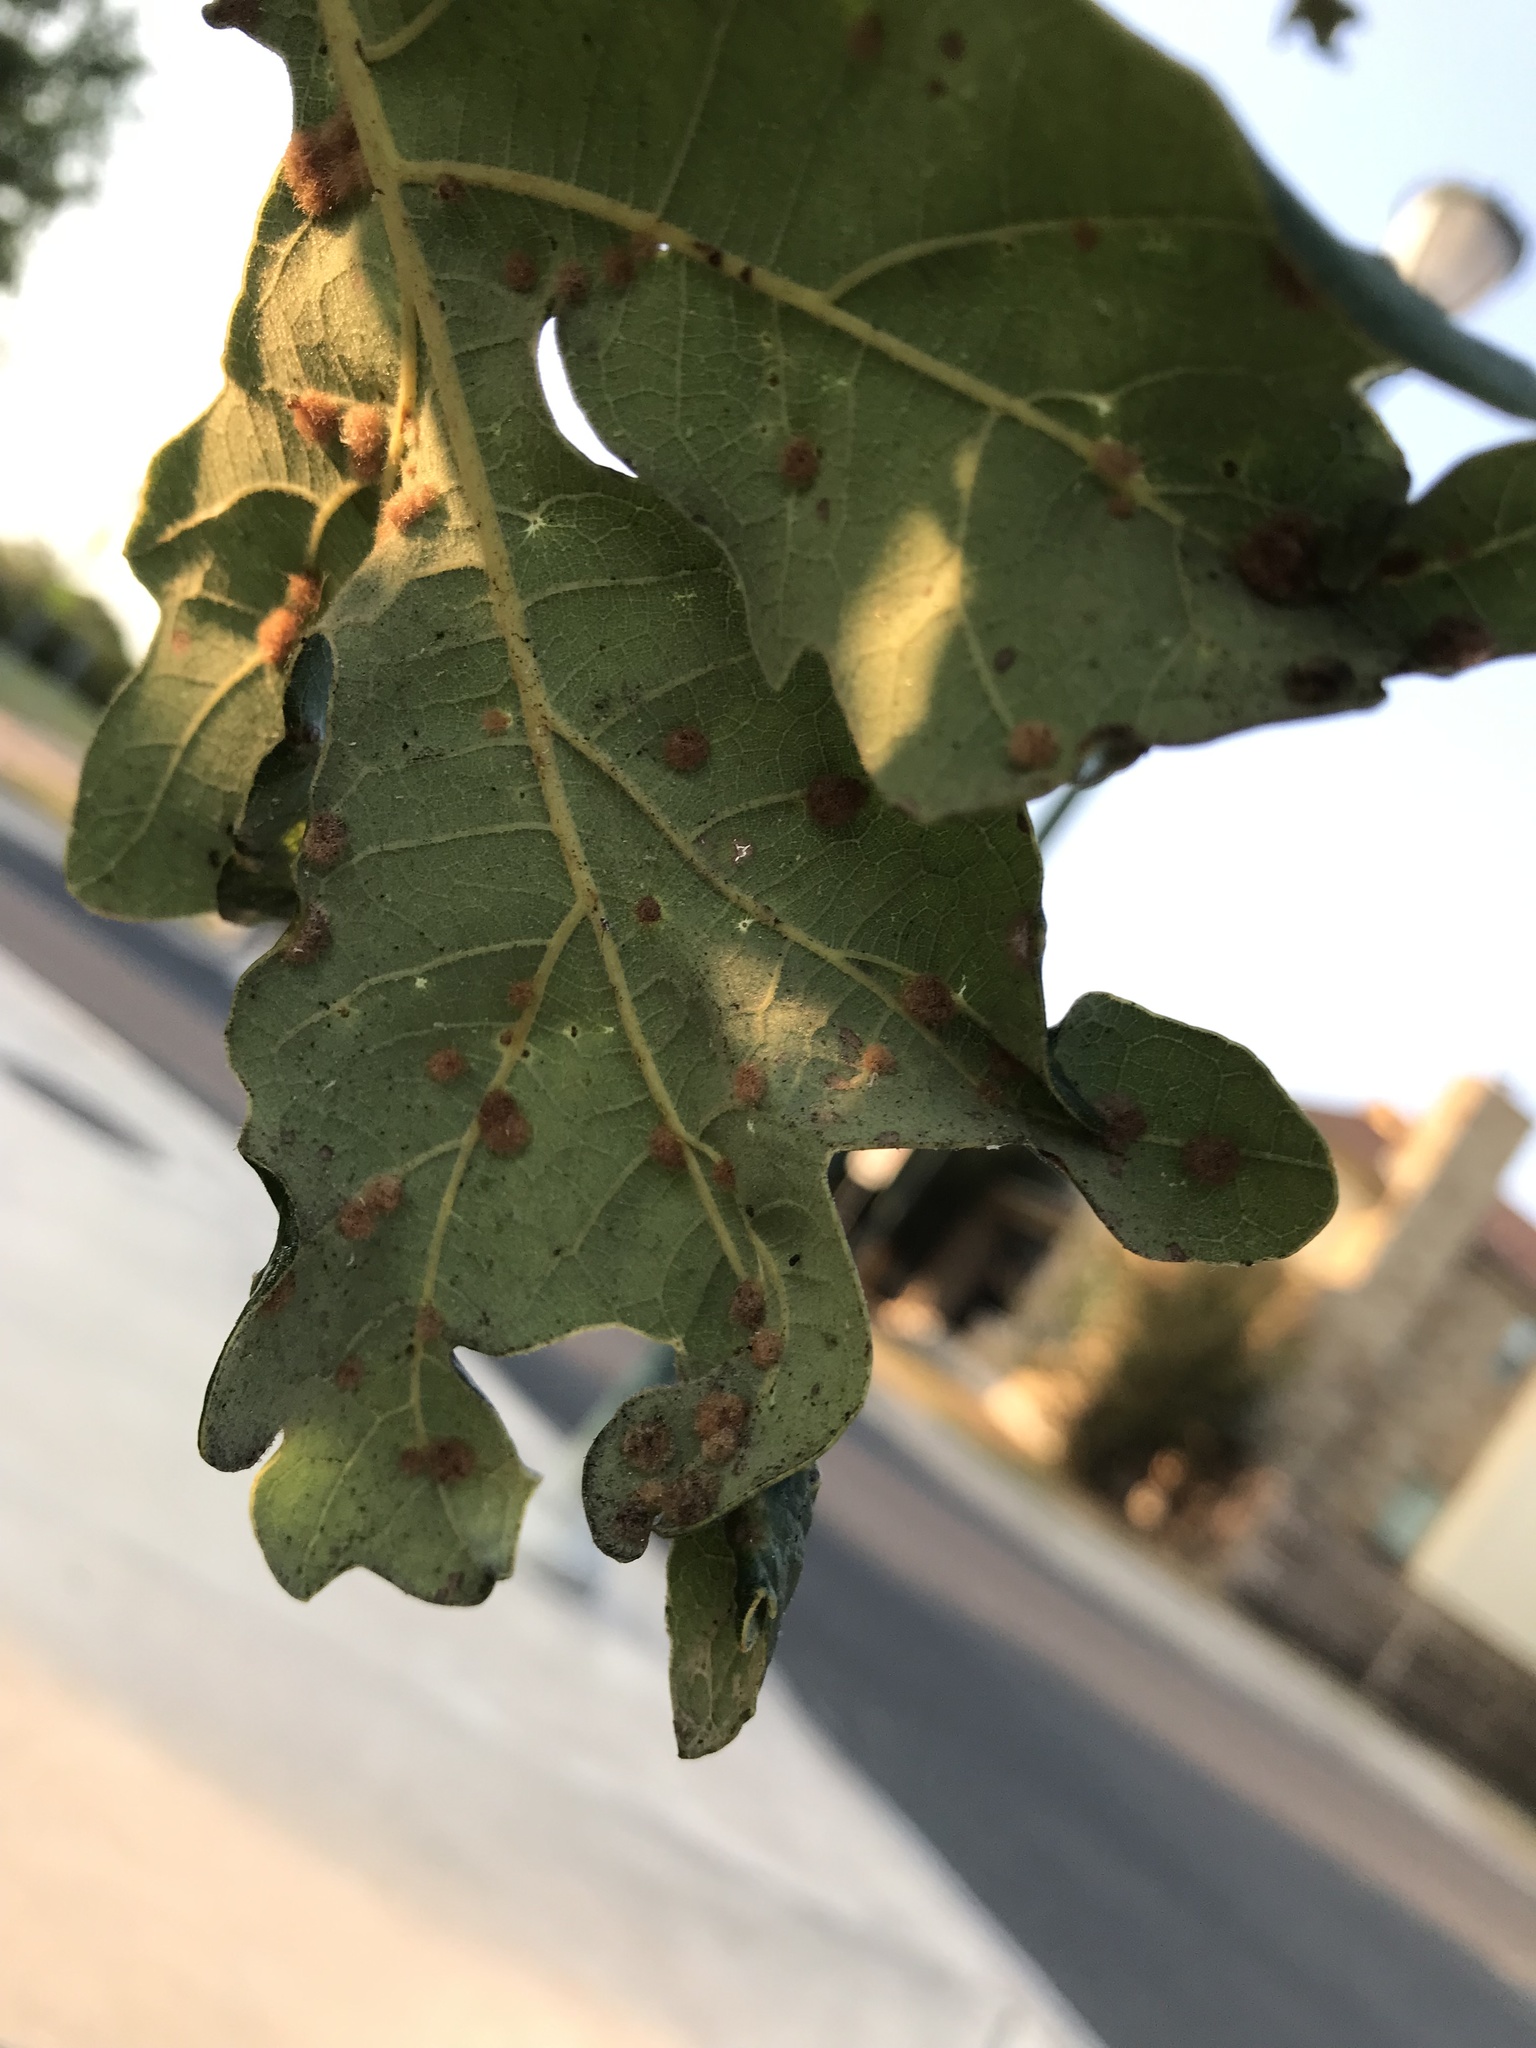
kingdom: Animalia
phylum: Arthropoda
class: Insecta
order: Hymenoptera
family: Cynipidae
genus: Neuroterus
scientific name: Neuroterus quercusverrucarum
